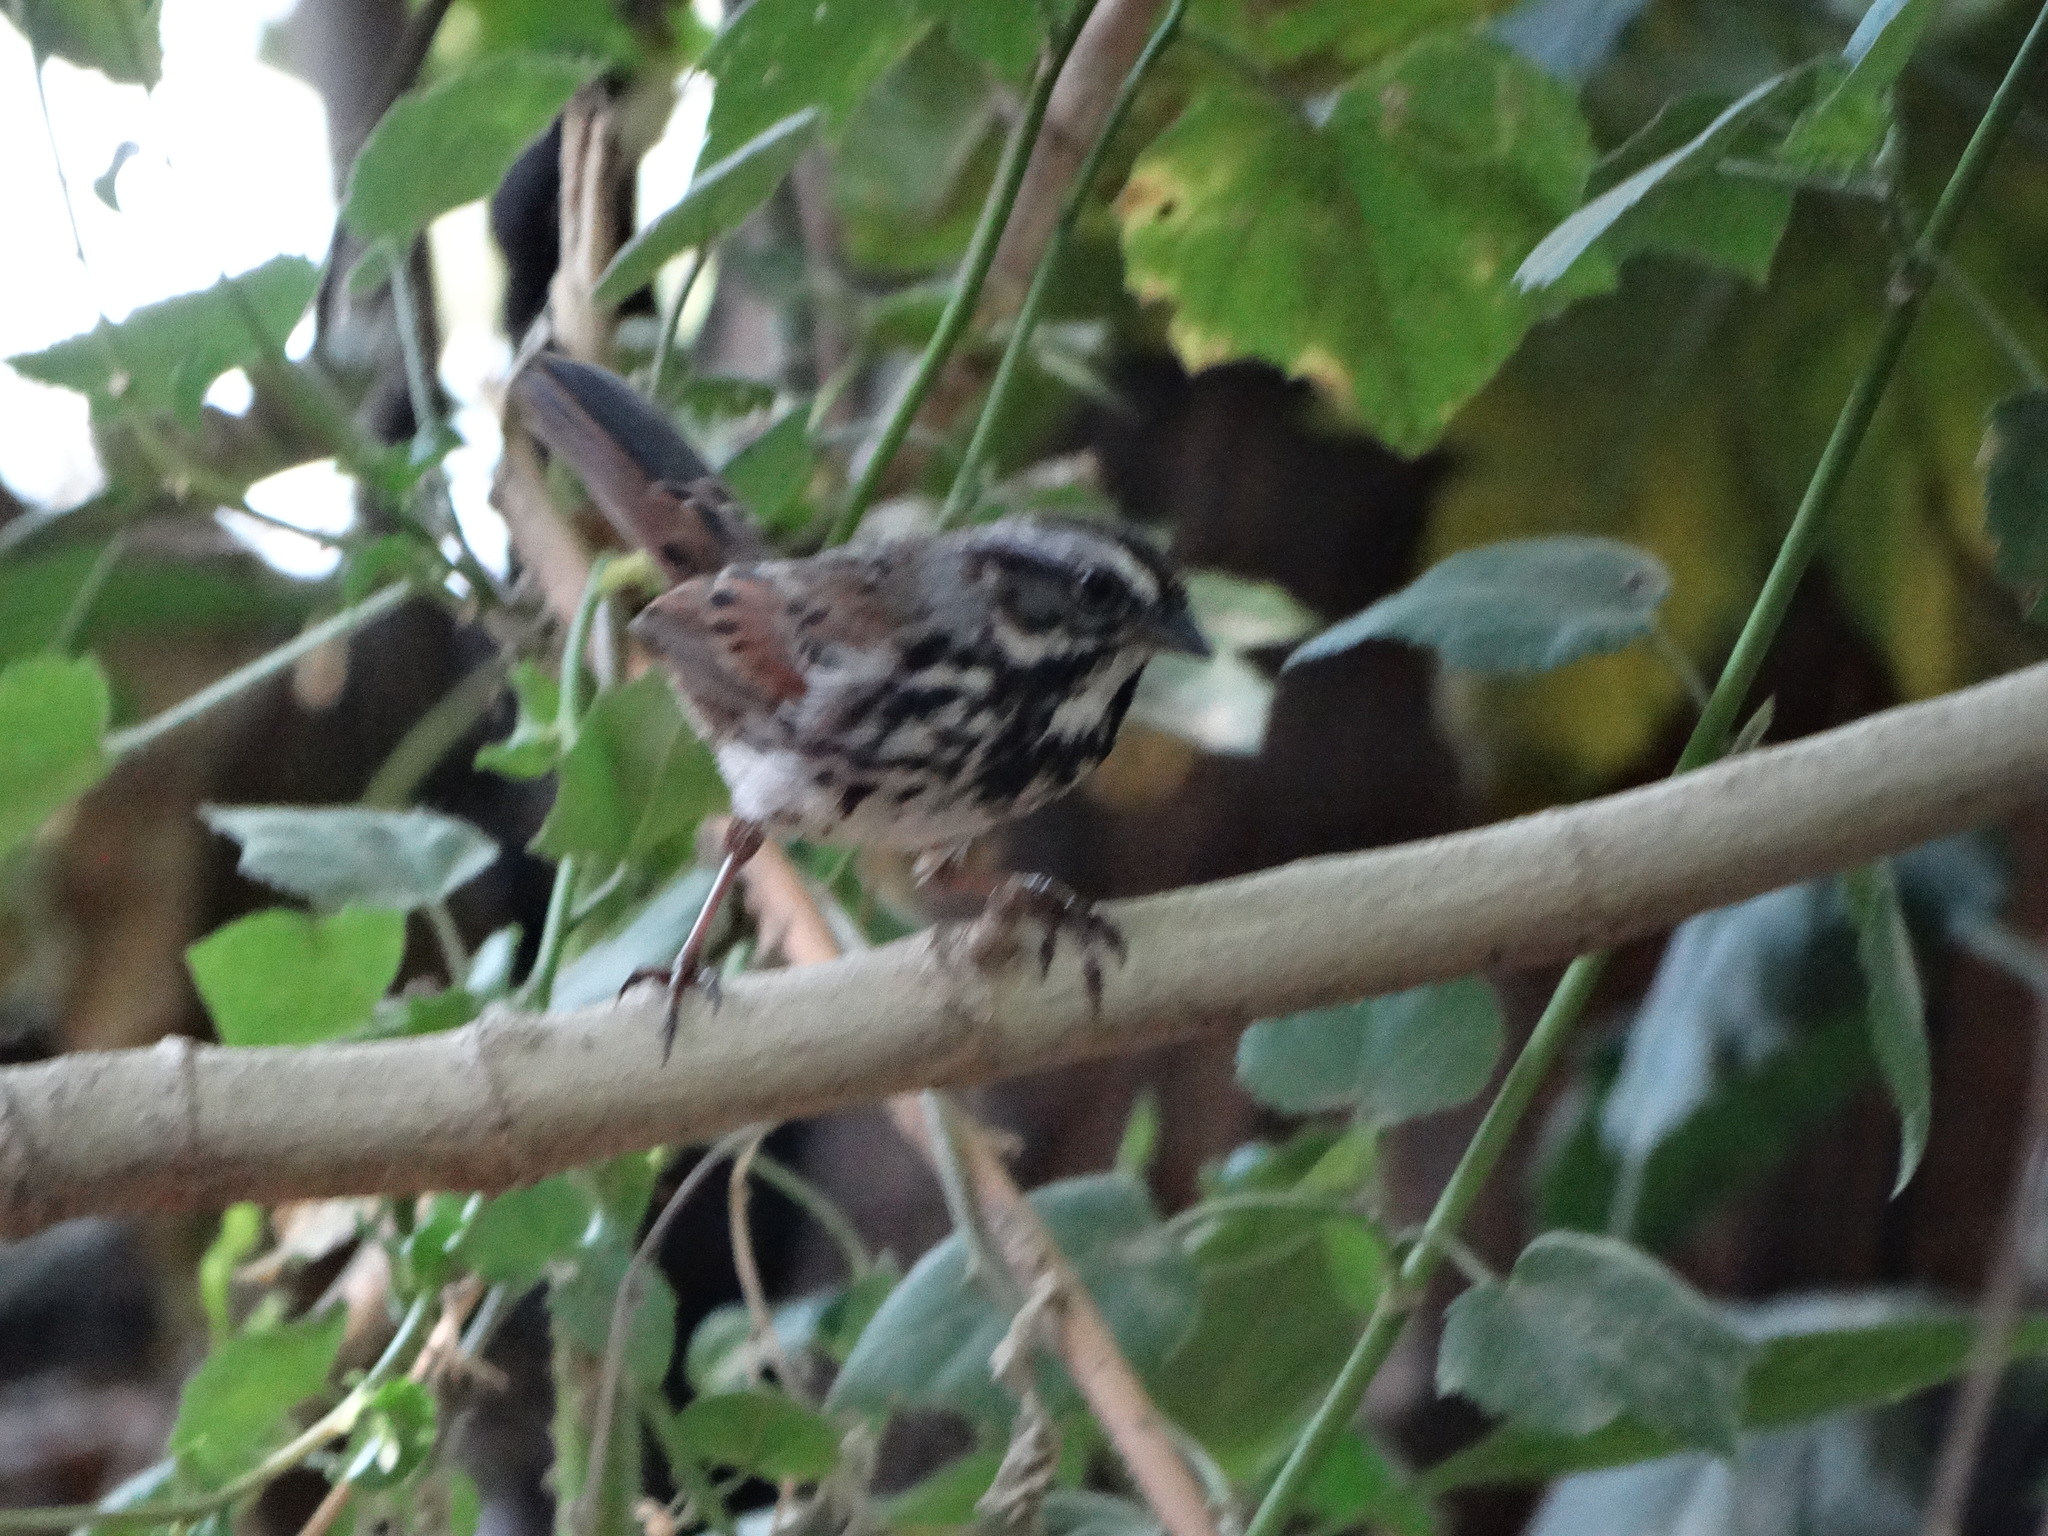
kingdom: Animalia
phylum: Chordata
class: Aves
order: Passeriformes
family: Passerellidae
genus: Melospiza
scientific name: Melospiza melodia
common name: Song sparrow
